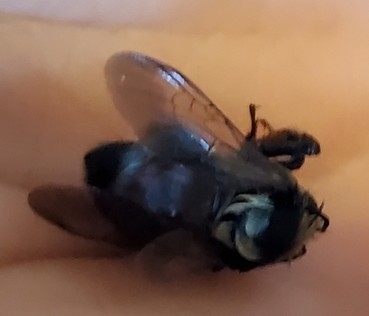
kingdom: Animalia
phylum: Arthropoda
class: Insecta
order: Hymenoptera
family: Apidae
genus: Bombus
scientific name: Bombus huntii
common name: Hunt bumble bee
